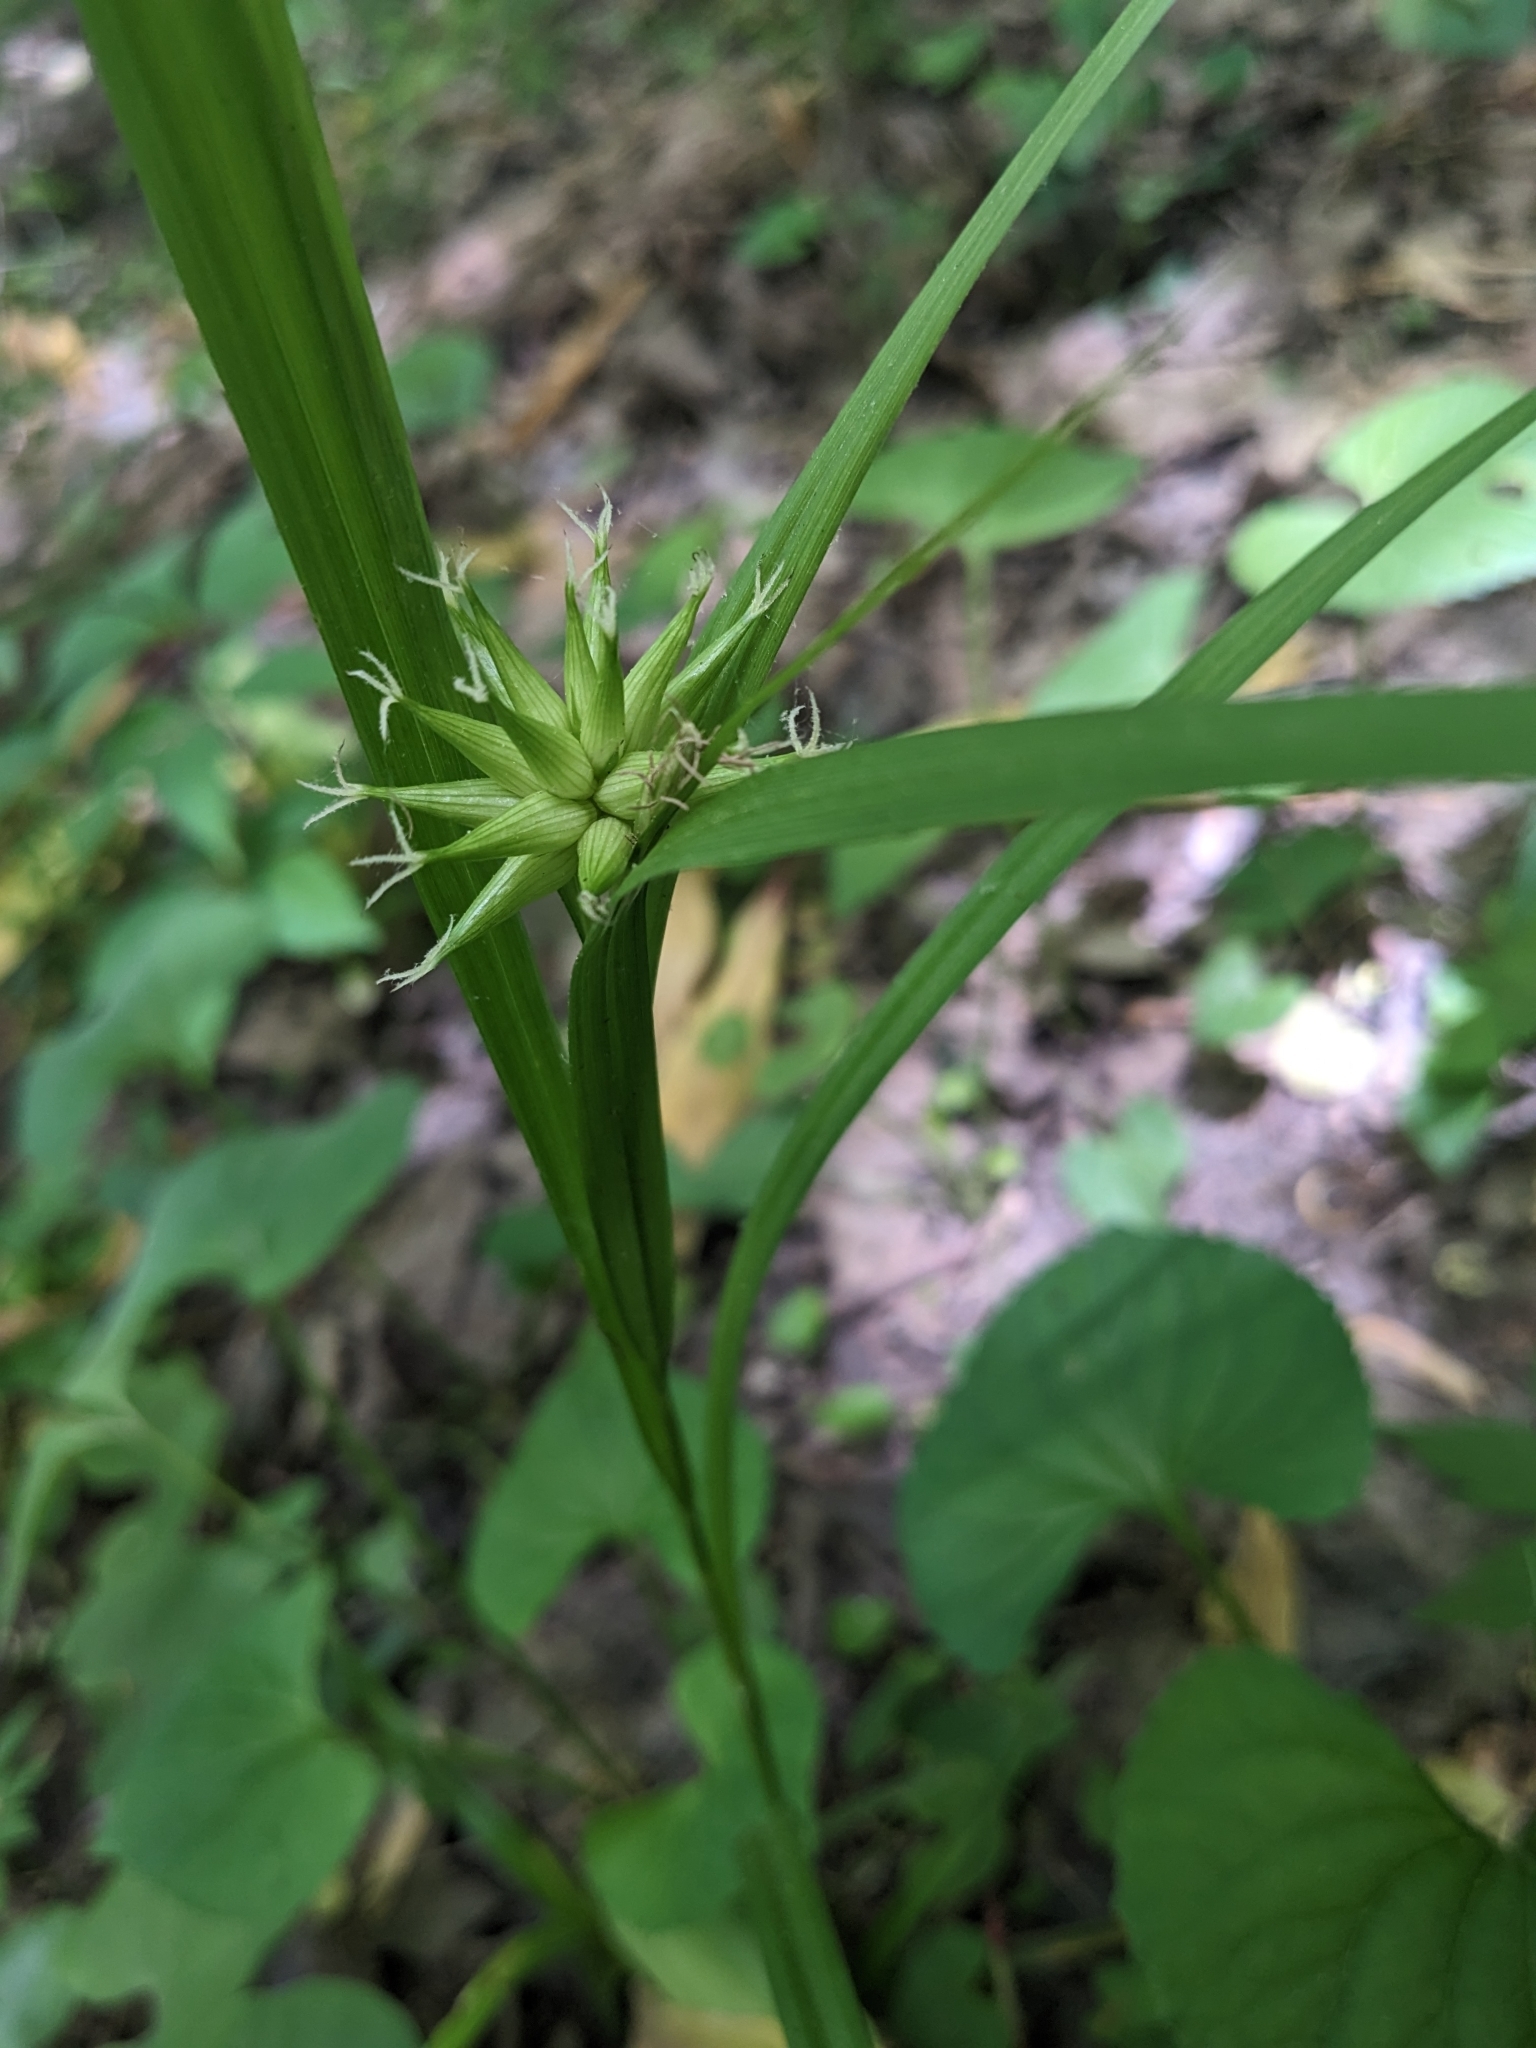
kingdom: Plantae
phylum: Tracheophyta
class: Liliopsida
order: Poales
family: Cyperaceae
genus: Carex
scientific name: Carex grayi
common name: Asa gray's sedge
